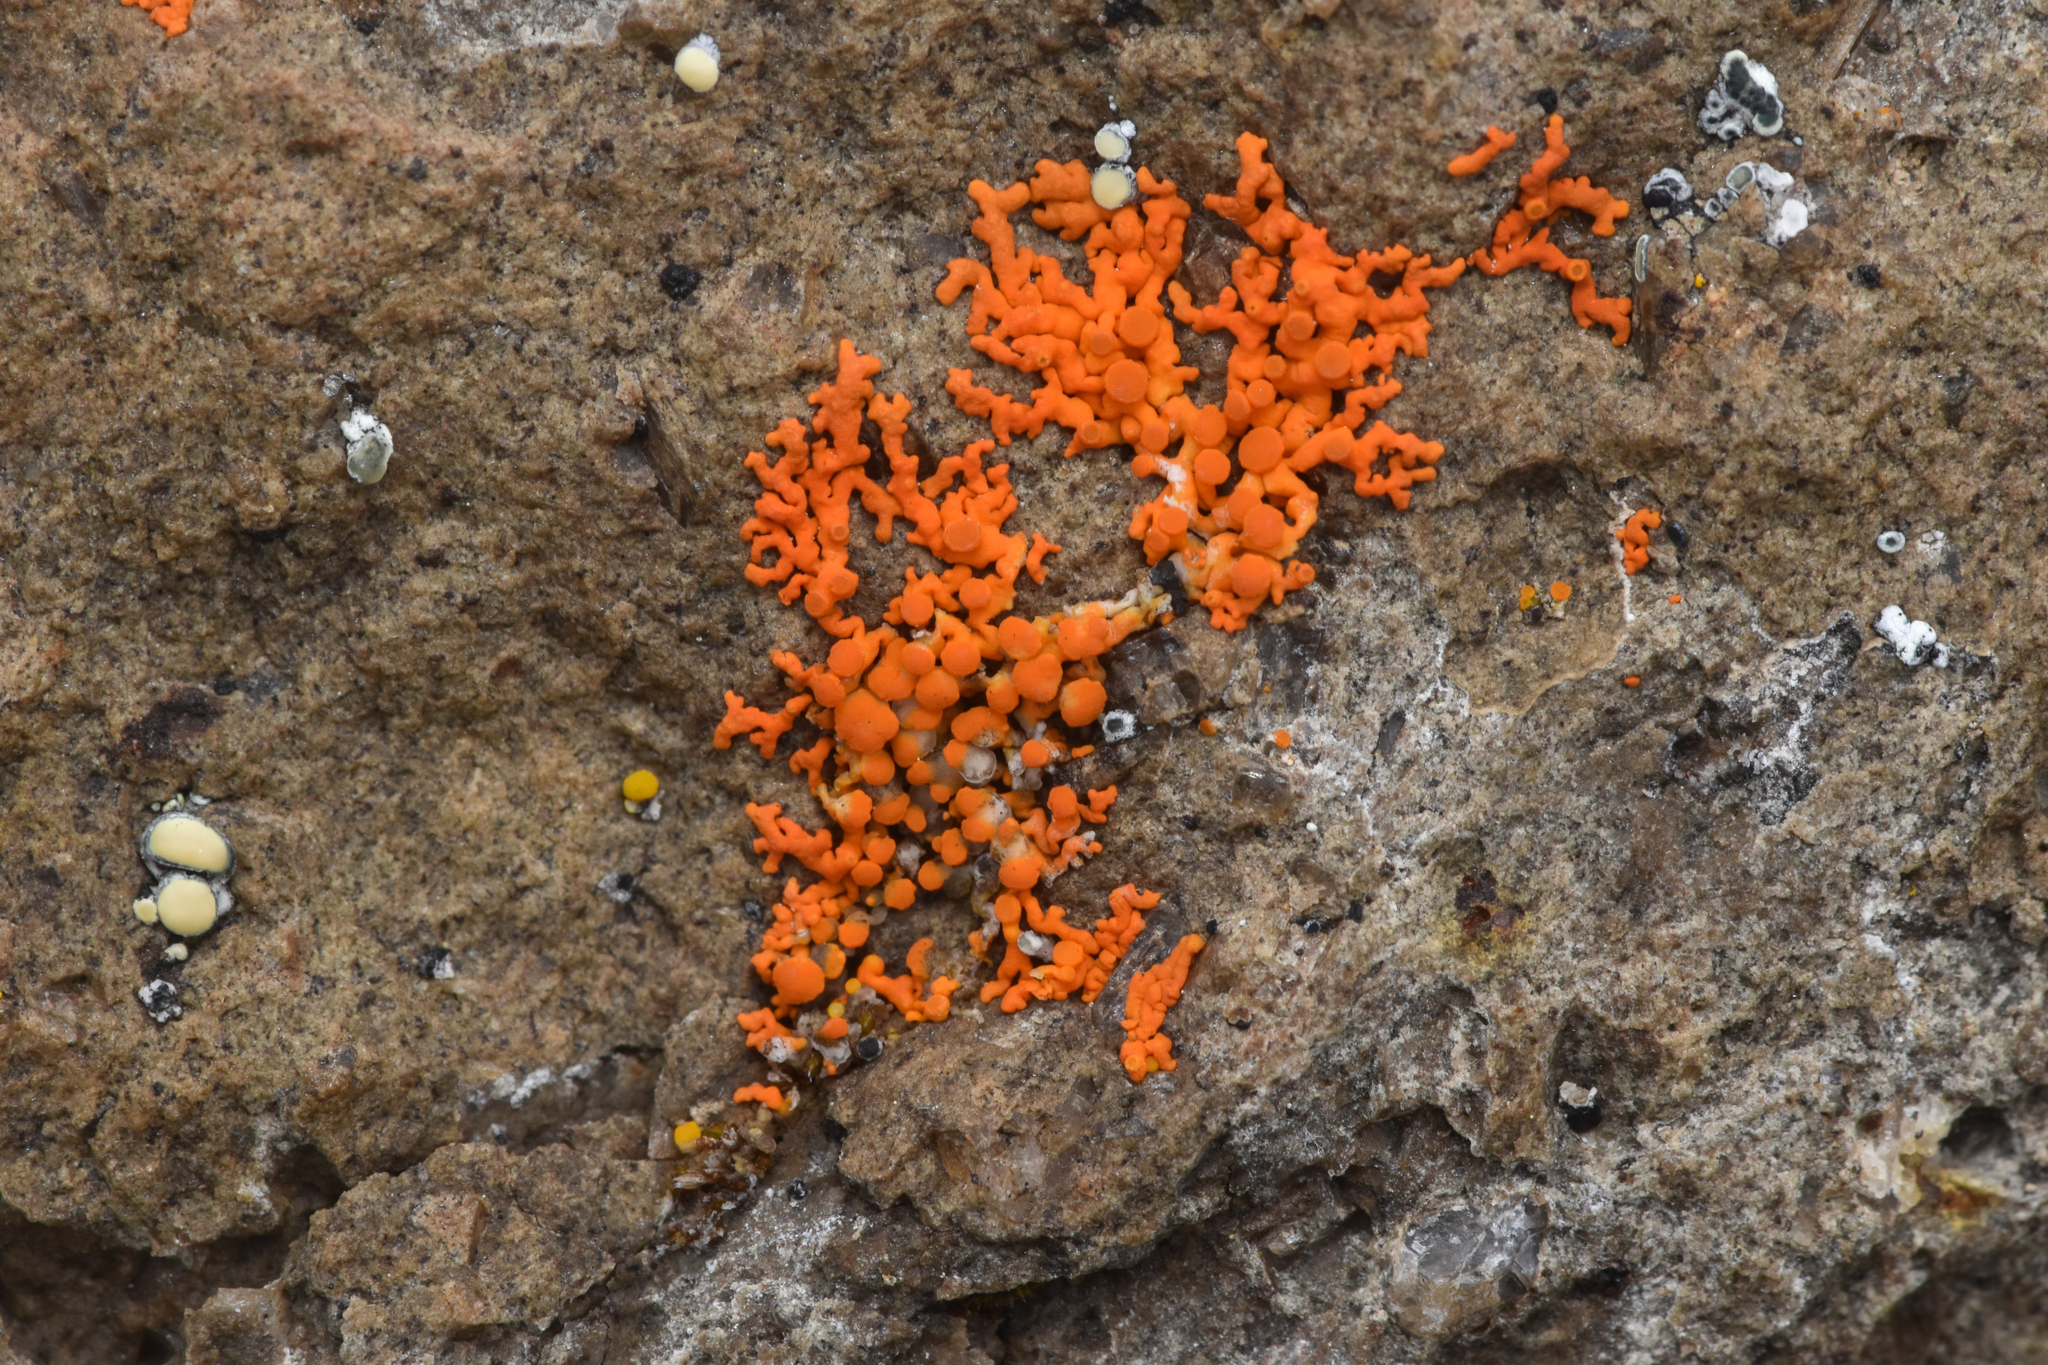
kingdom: Fungi
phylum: Ascomycota
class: Lecanoromycetes
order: Teloschistales
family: Teloschistaceae
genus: Xanthoria
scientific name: Xanthoria elegans
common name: Elegant sunburst lichen
